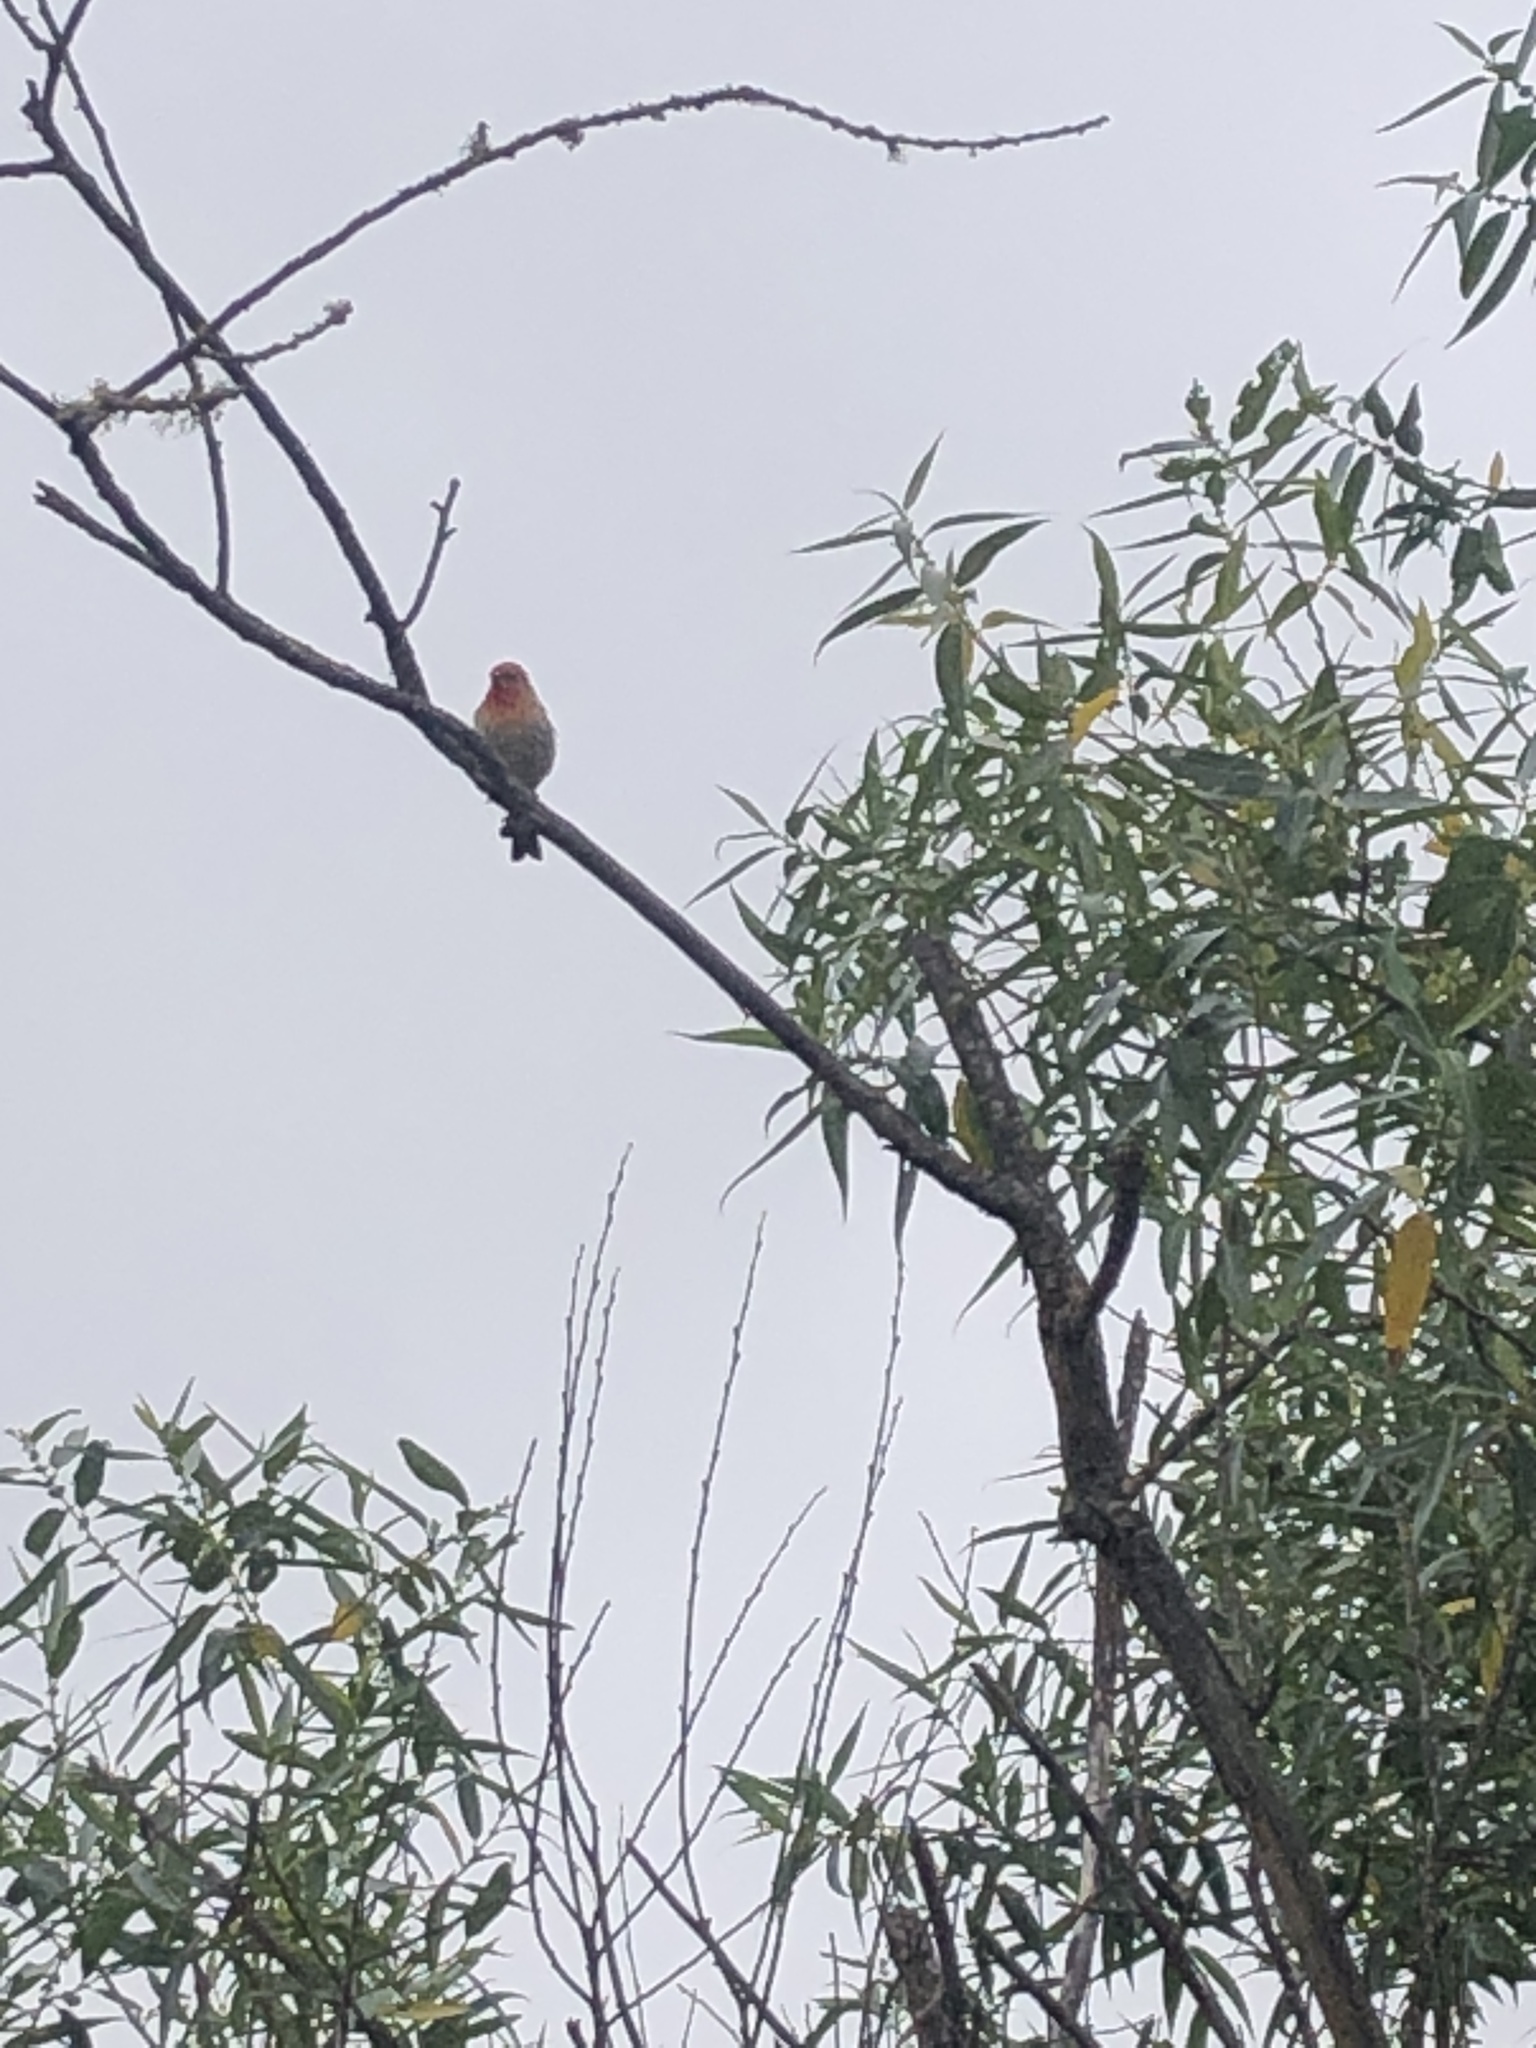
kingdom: Animalia
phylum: Chordata
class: Aves
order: Passeriformes
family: Fringillidae
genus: Haemorhous
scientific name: Haemorhous mexicanus
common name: House finch
